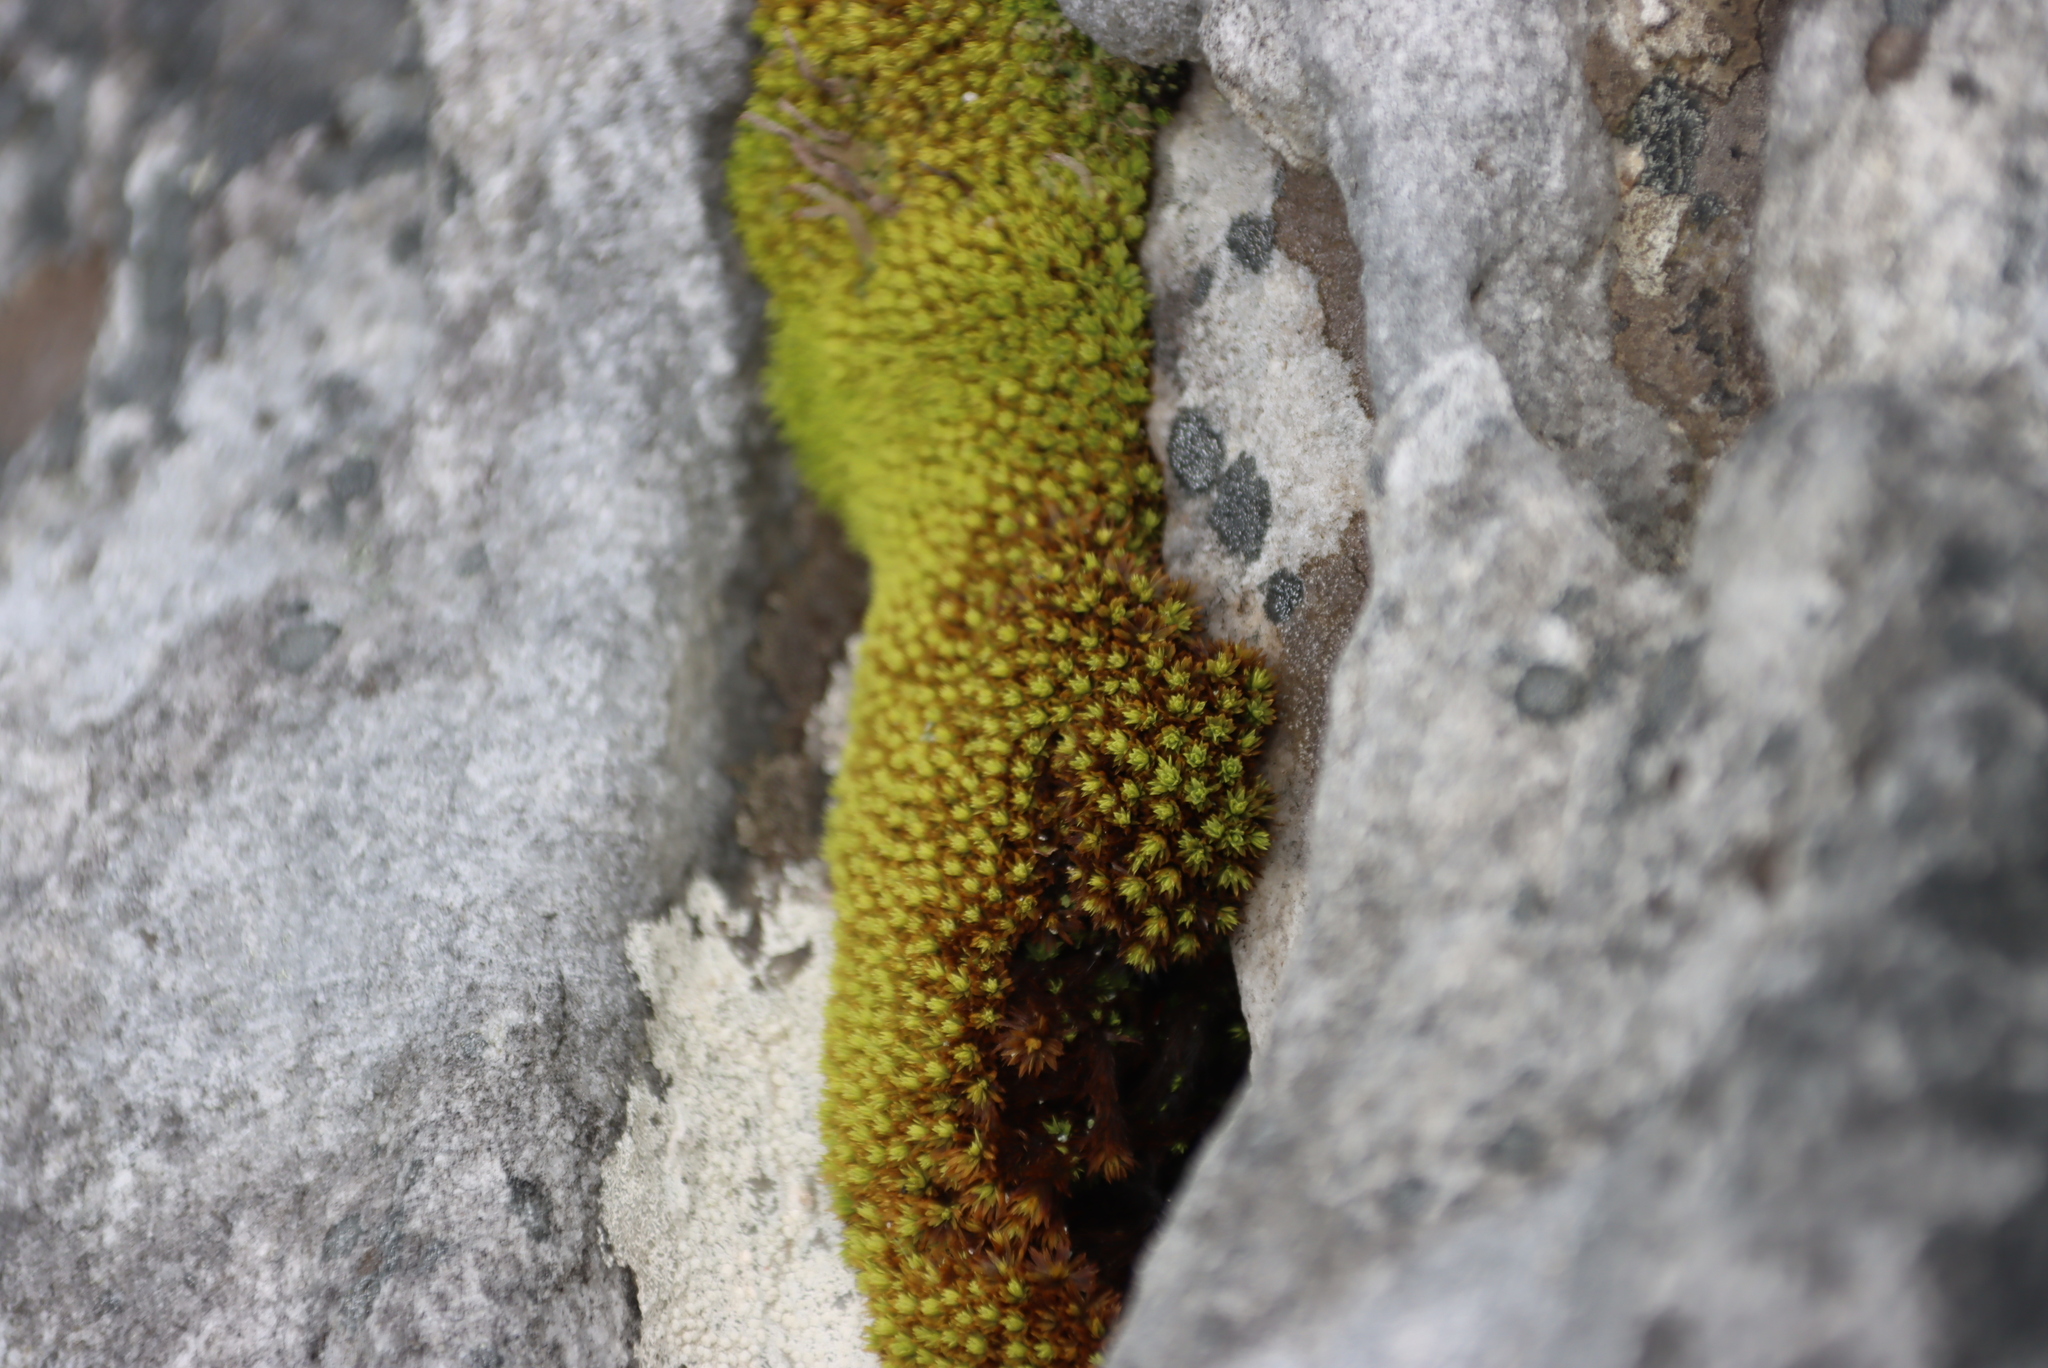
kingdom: Plantae
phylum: Bryophyta
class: Bryopsida
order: Dicranales
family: Hypodontiaceae
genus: Hypodontium
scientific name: Hypodontium pomiforme
